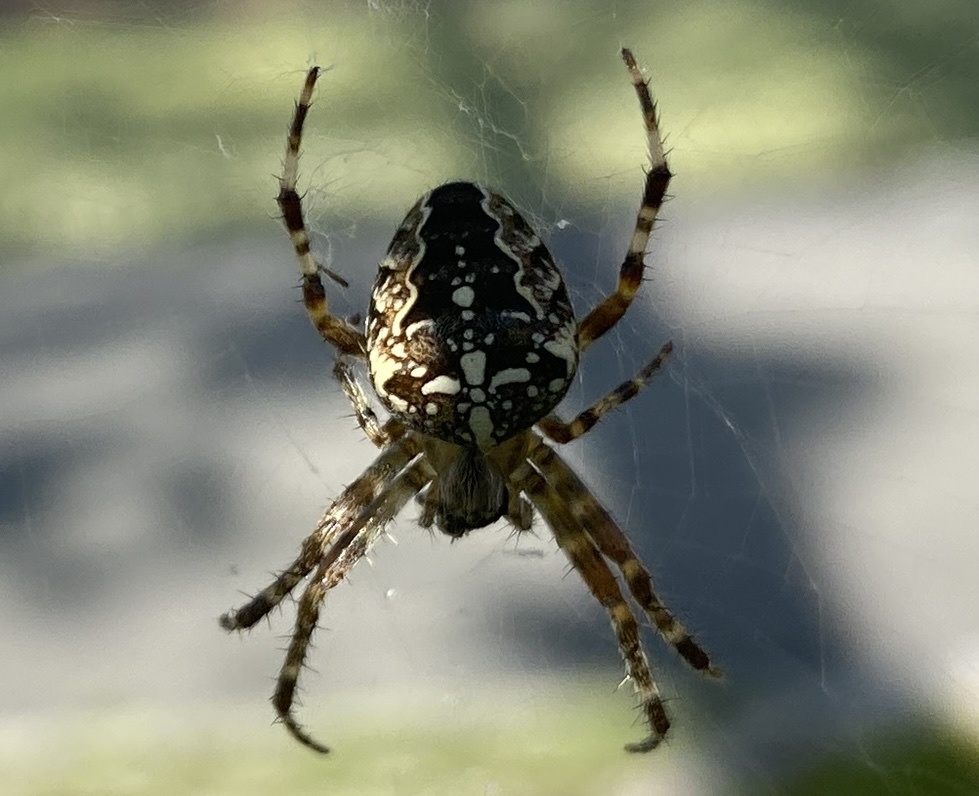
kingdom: Animalia
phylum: Arthropoda
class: Arachnida
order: Araneae
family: Araneidae
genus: Araneus
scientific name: Araneus diadematus
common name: Cross orbweaver
